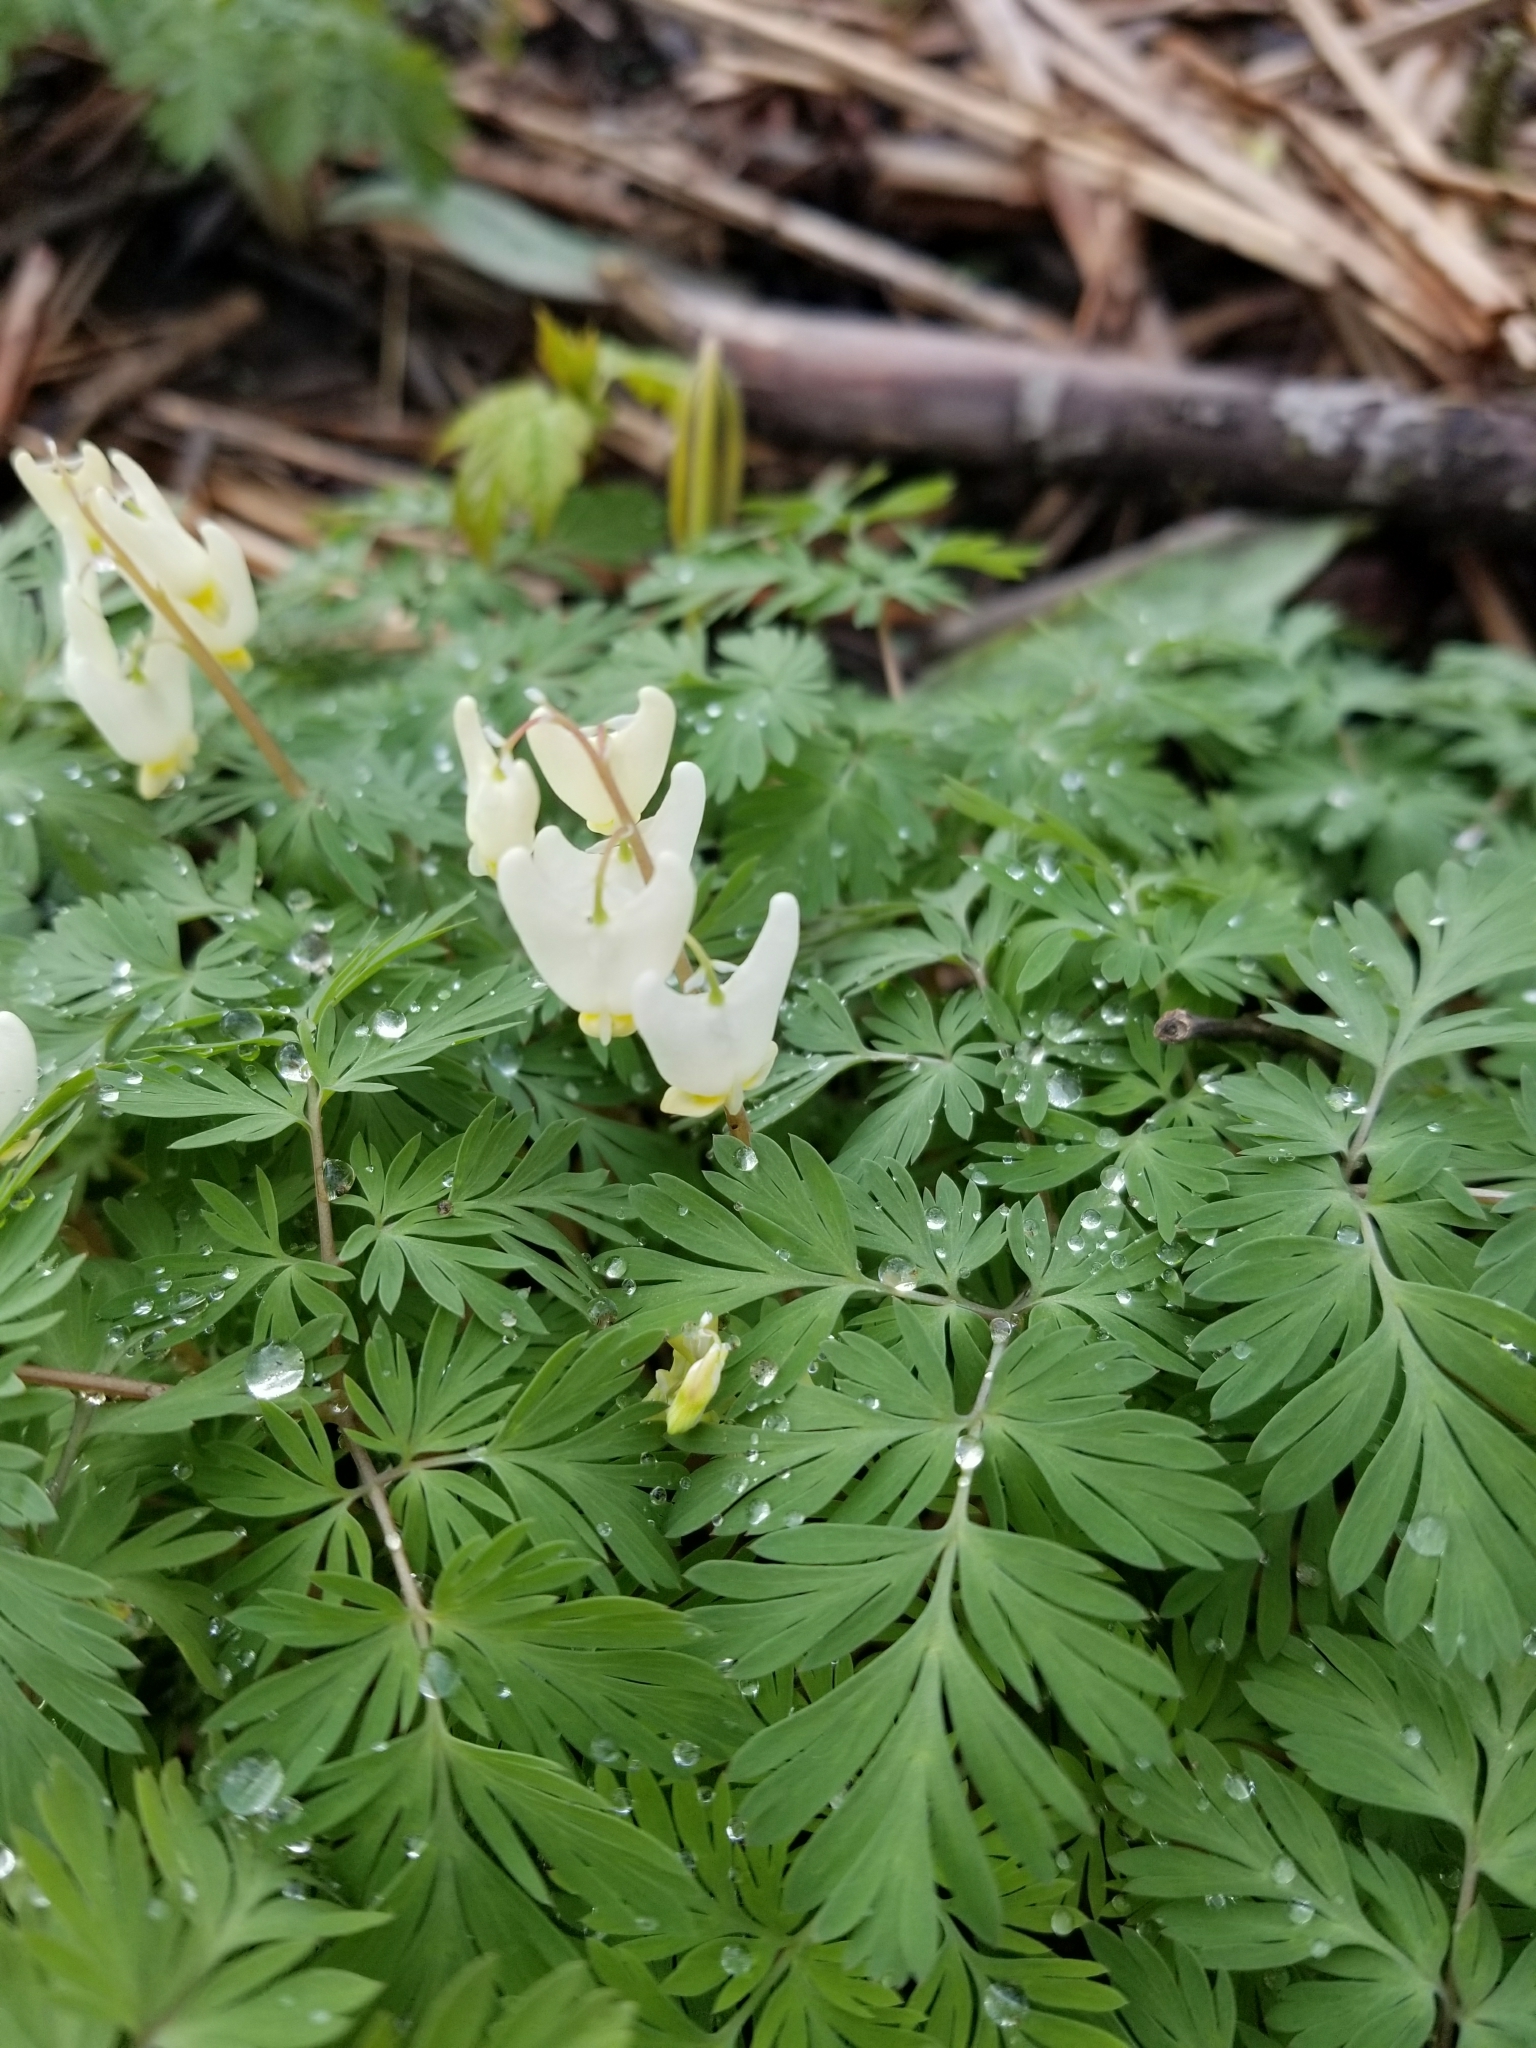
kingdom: Plantae
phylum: Tracheophyta
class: Magnoliopsida
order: Ranunculales
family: Papaveraceae
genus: Dicentra
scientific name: Dicentra cucullaria
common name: Dutchman's breeches
